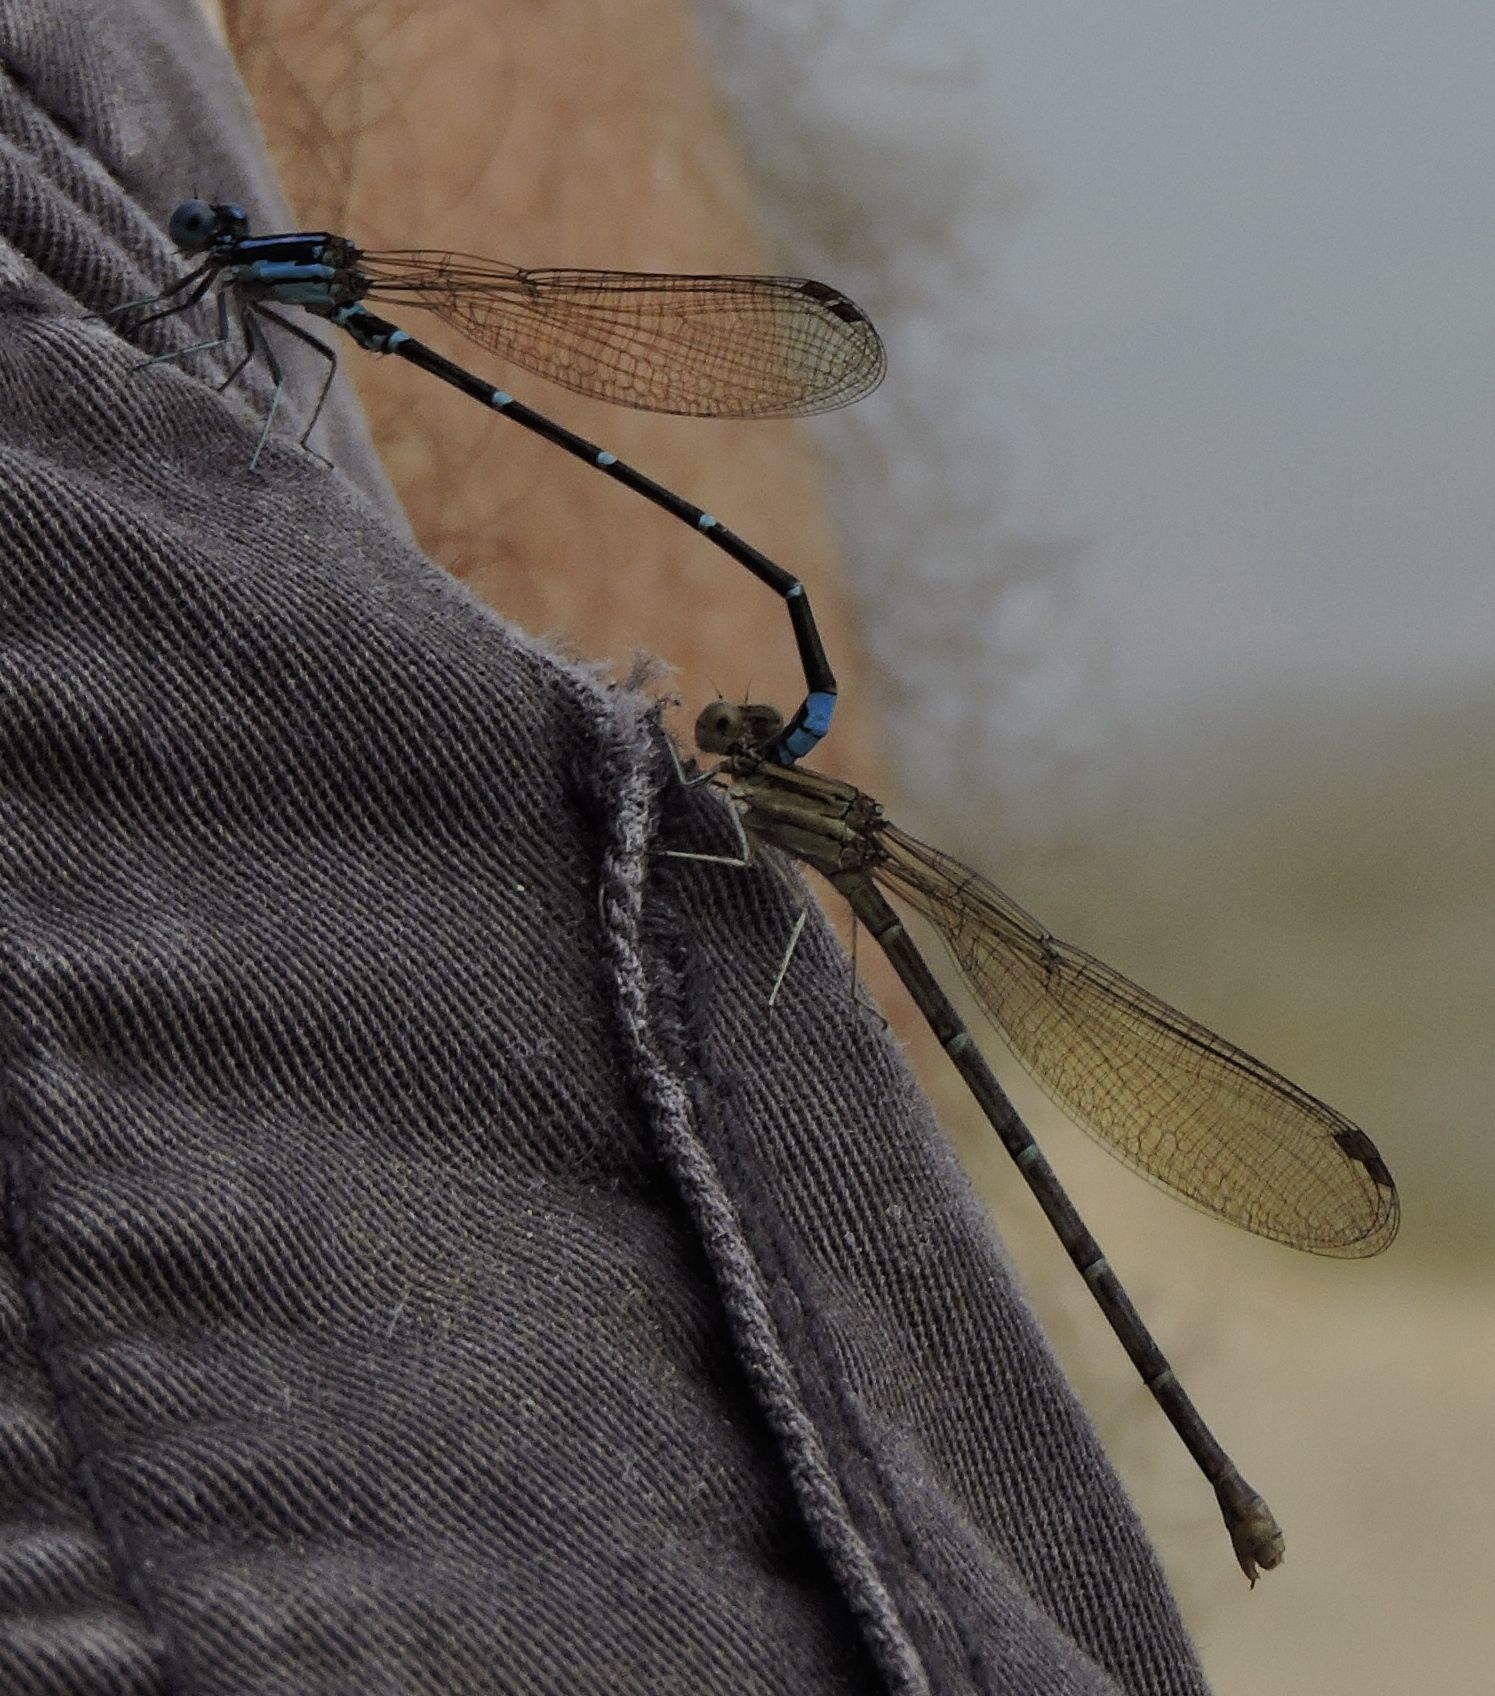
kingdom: Animalia
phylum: Arthropoda
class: Insecta
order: Odonata
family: Coenagrionidae
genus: Argia
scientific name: Argia sedula
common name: Blue-ringed dancer
